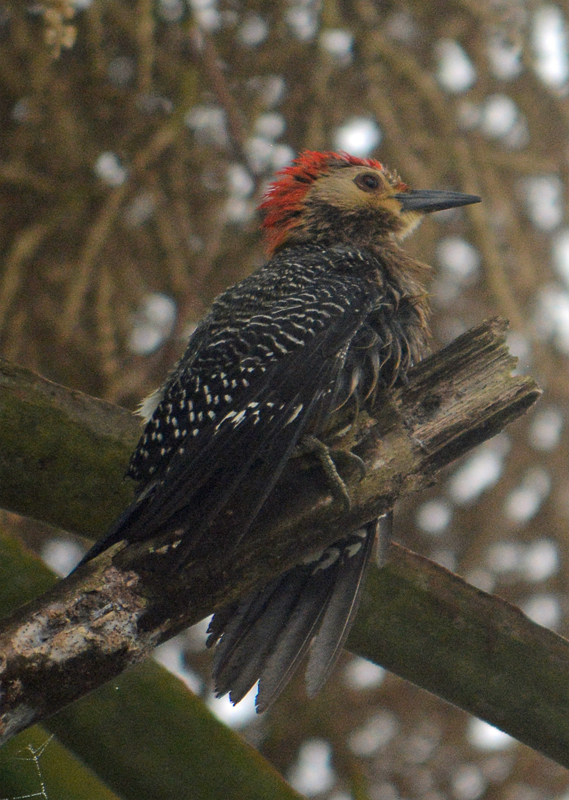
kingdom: Animalia
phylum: Chordata
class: Aves
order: Piciformes
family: Picidae
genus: Melanerpes
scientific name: Melanerpes aurifrons
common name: Golden-fronted woodpecker
